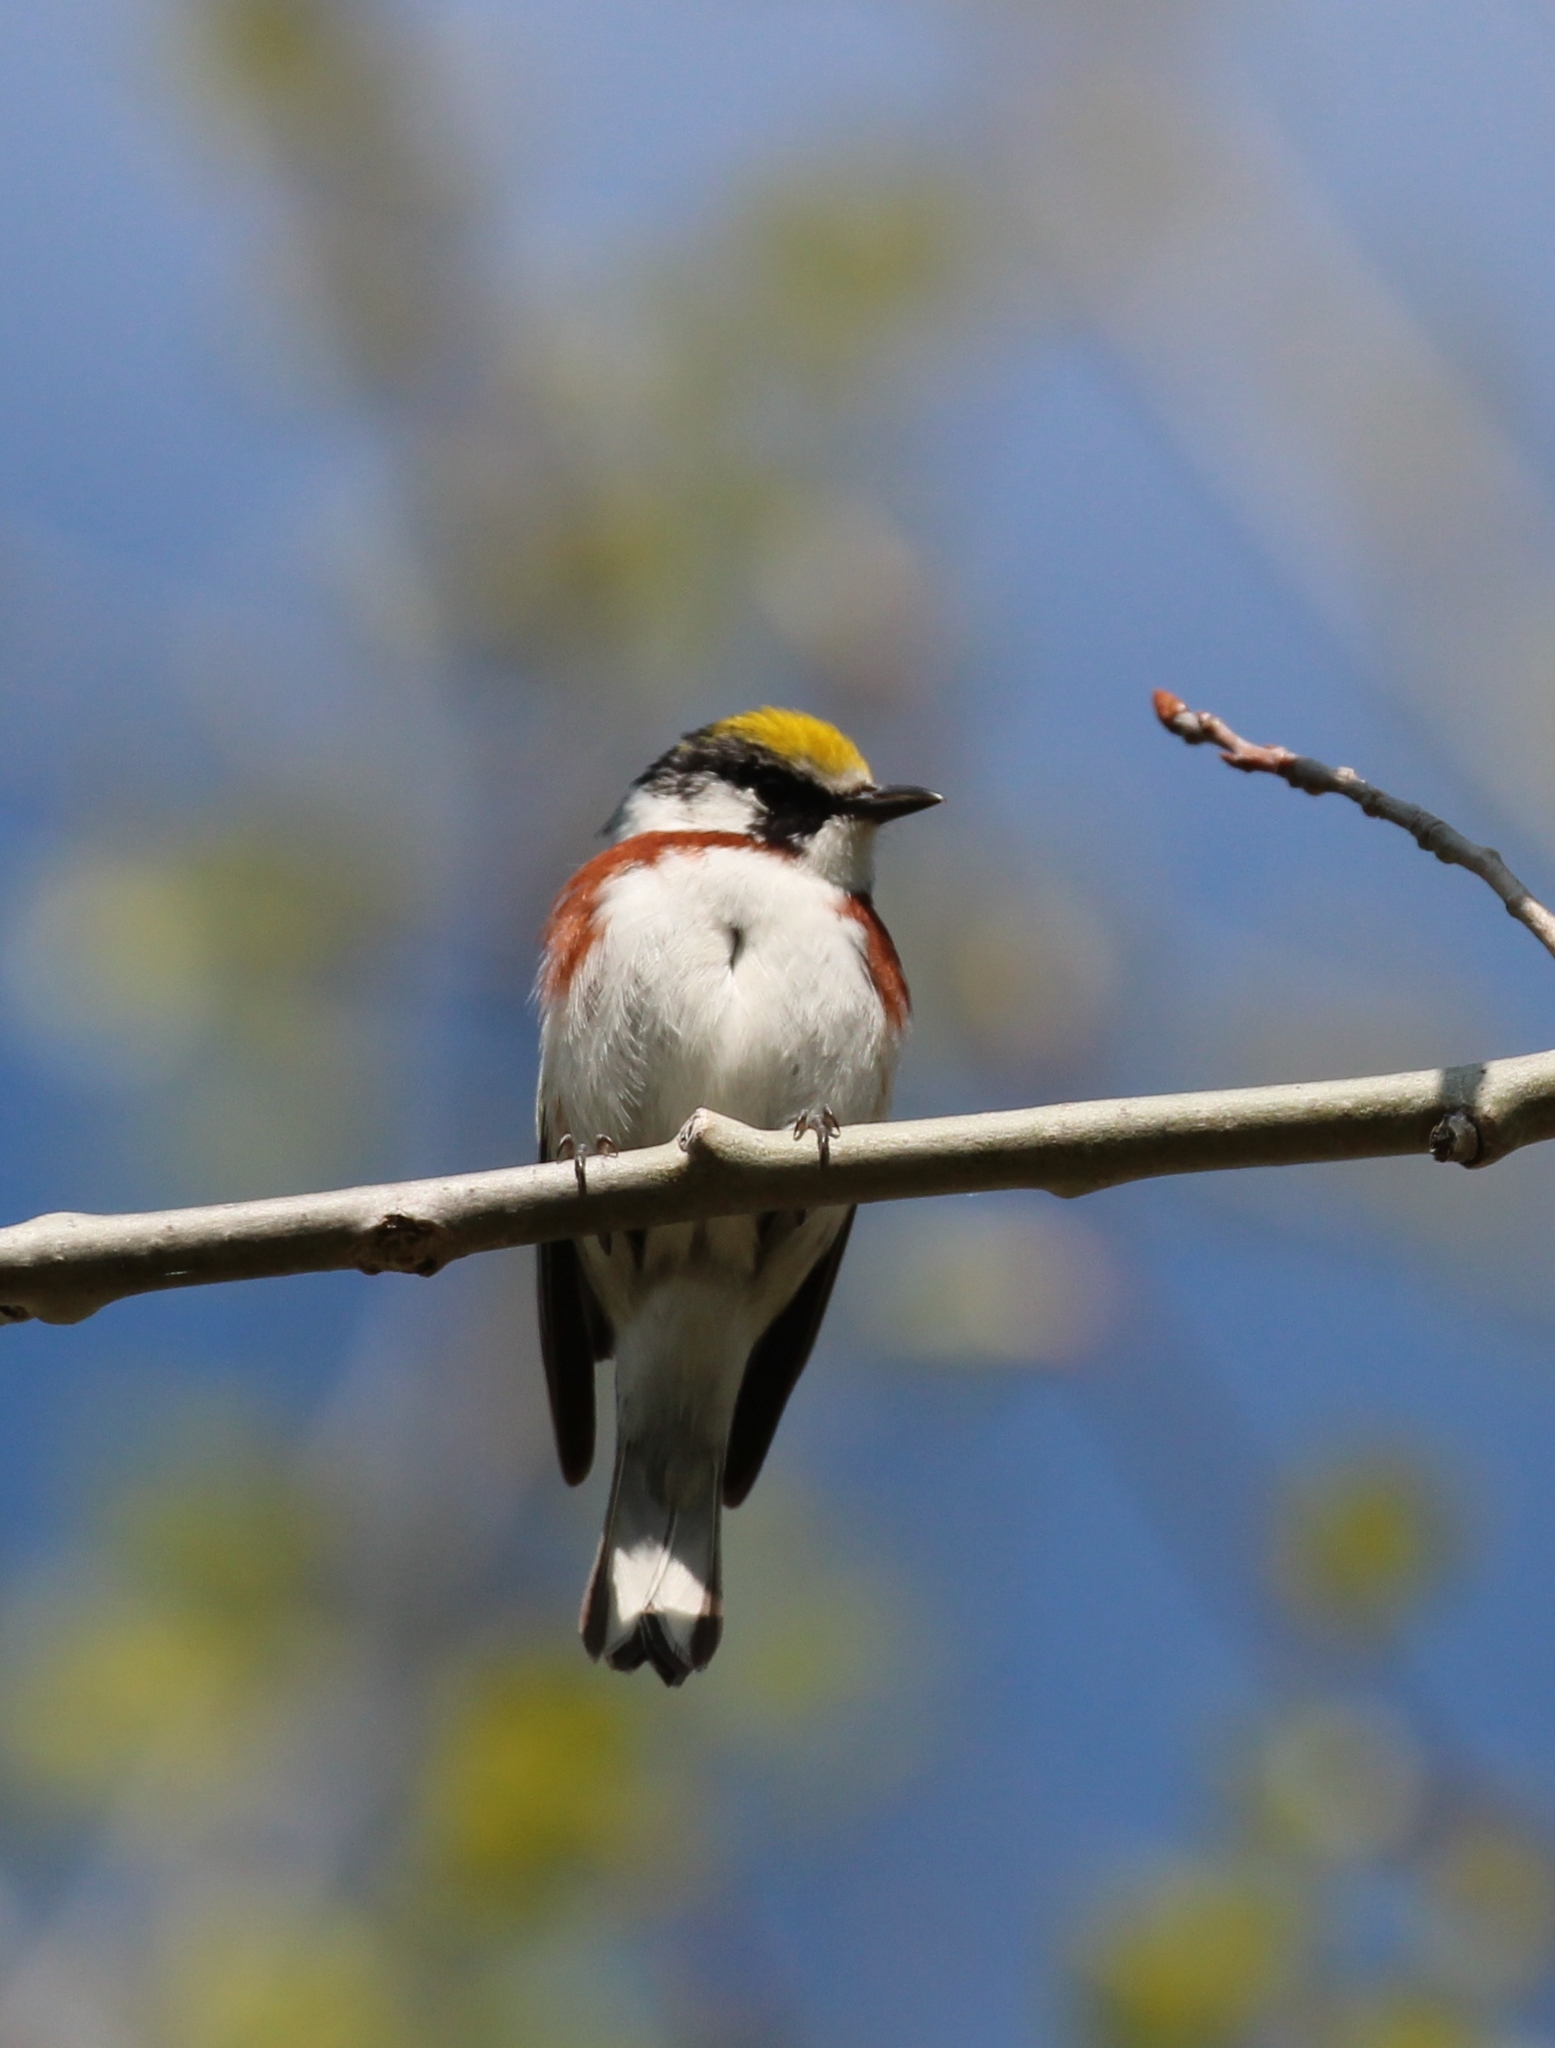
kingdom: Animalia
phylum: Chordata
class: Aves
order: Passeriformes
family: Parulidae
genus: Setophaga
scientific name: Setophaga pensylvanica
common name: Chestnut-sided warbler
